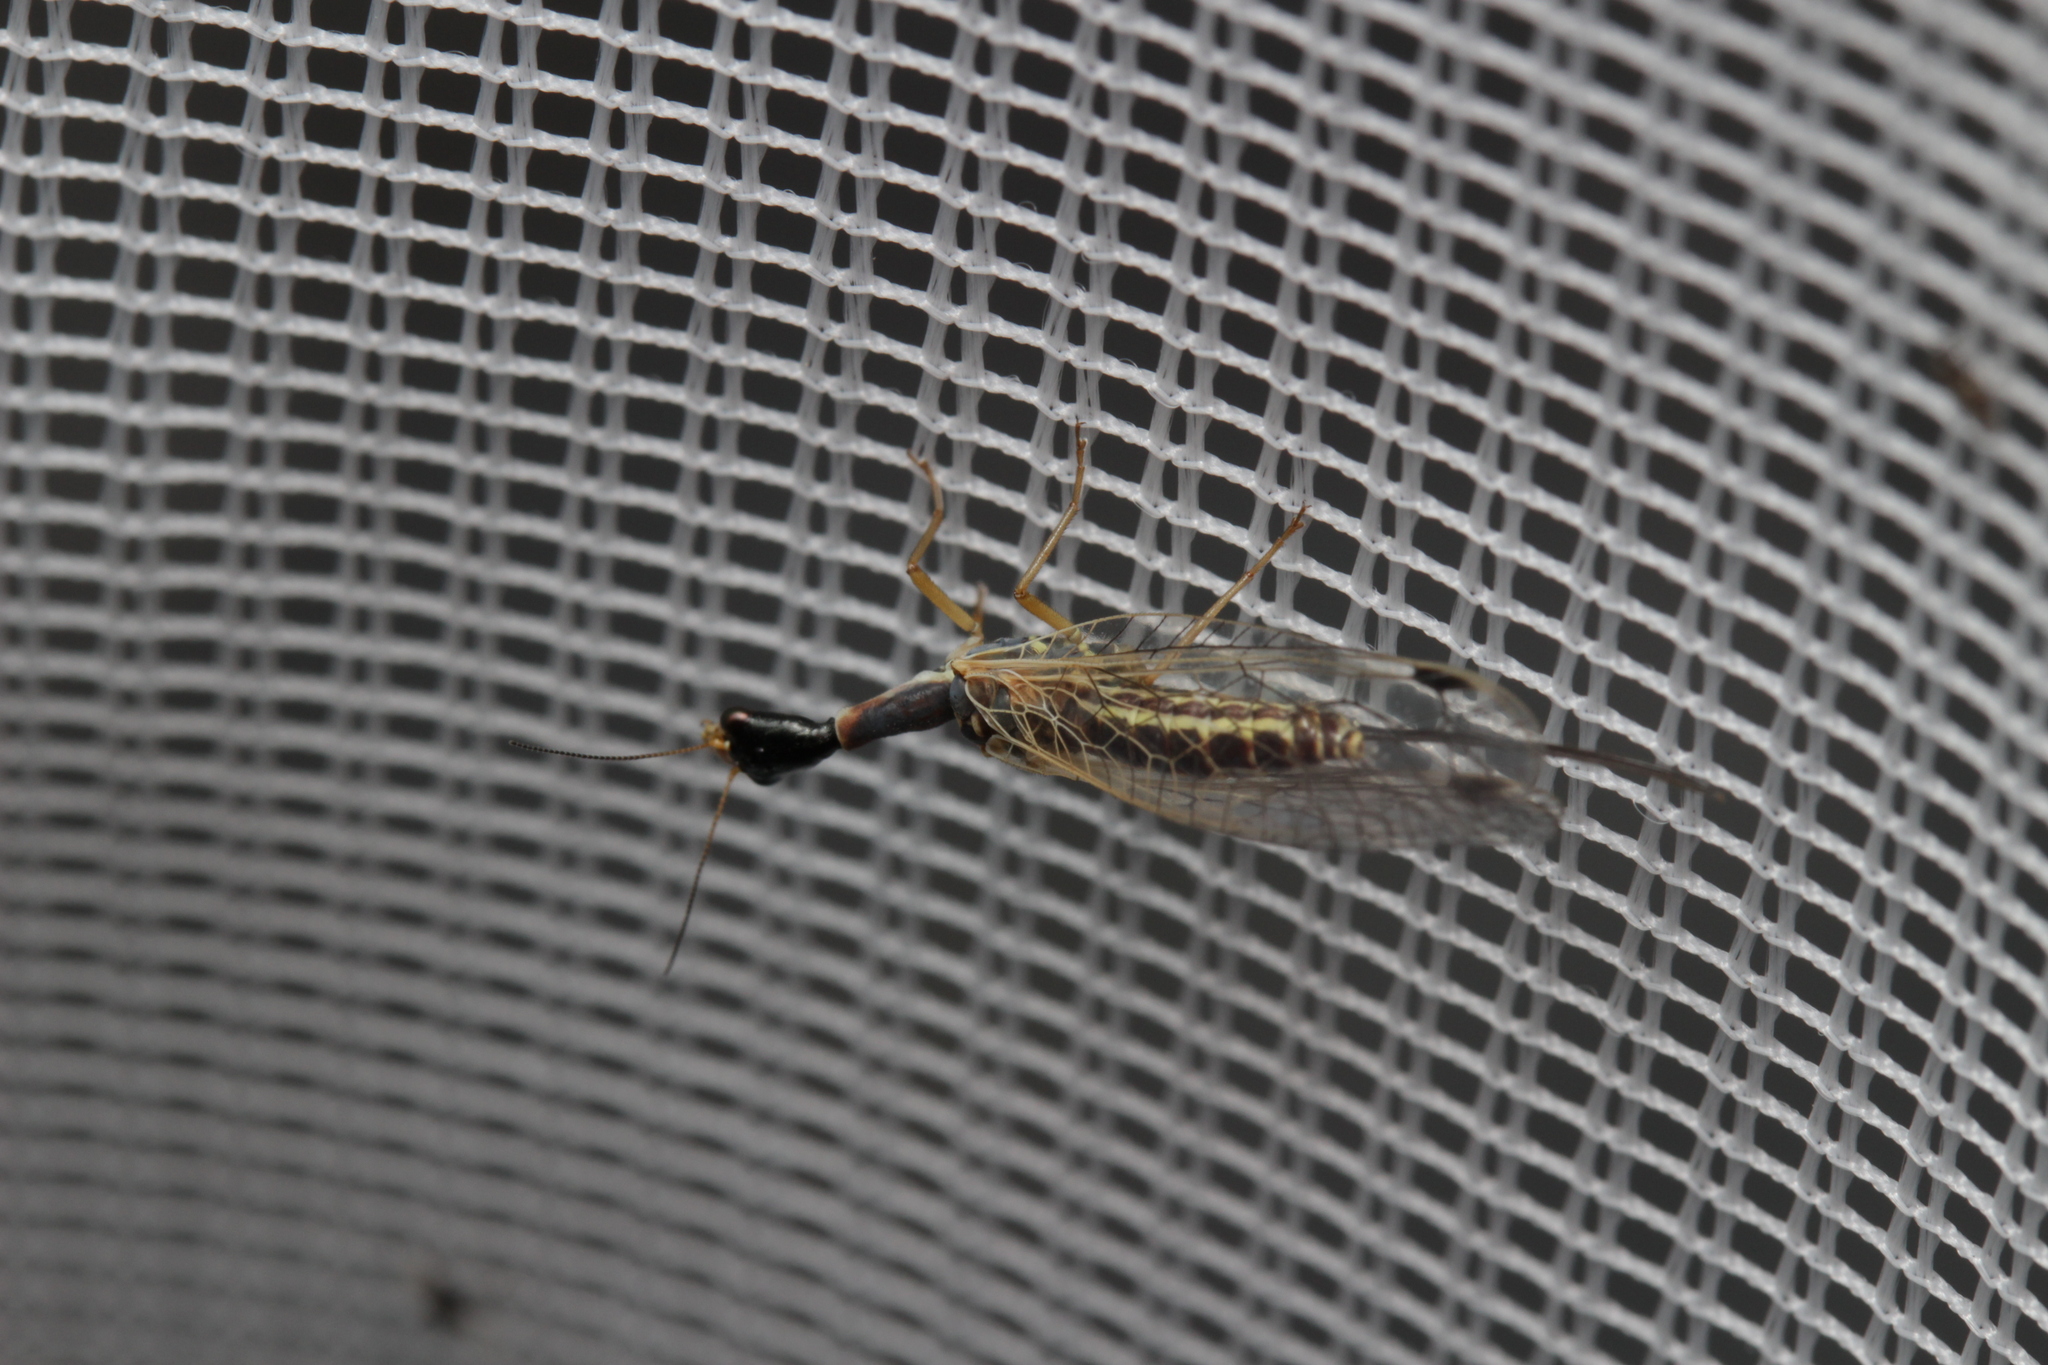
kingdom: Animalia
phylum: Arthropoda
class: Insecta
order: Raphidioptera
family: Raphidiidae
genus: Ornatoraphidia
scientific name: Ornatoraphidia flavilabris
